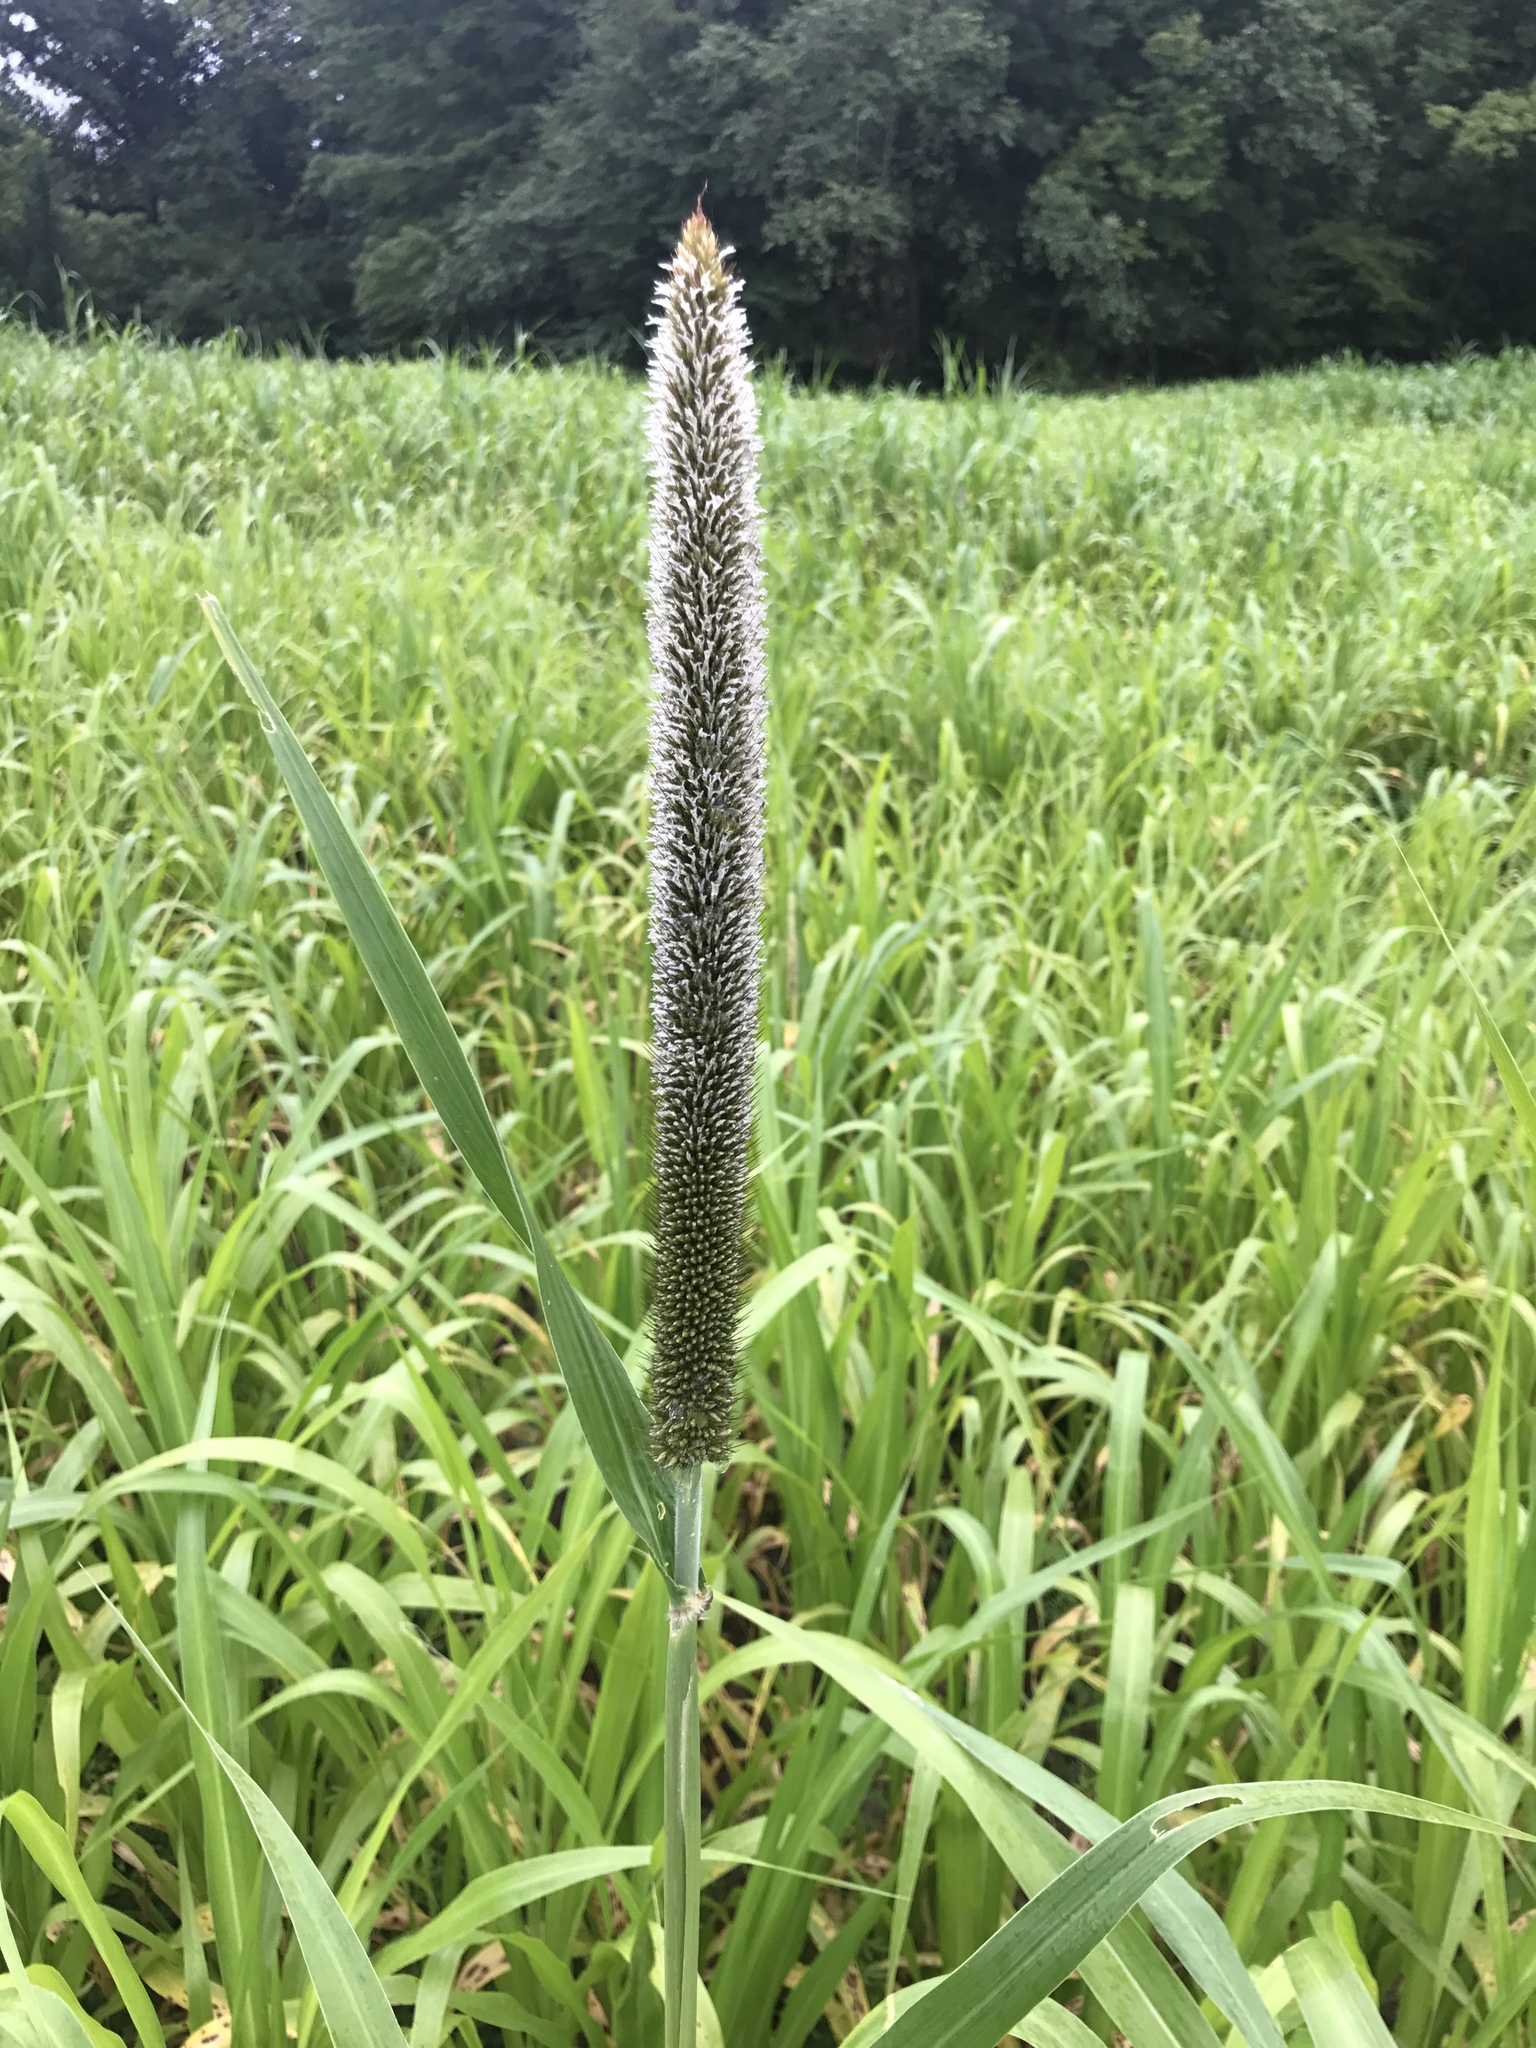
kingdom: Plantae
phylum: Tracheophyta
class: Liliopsida
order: Poales
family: Poaceae
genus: Cenchrus
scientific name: Cenchrus americanus
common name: Pearl millet
